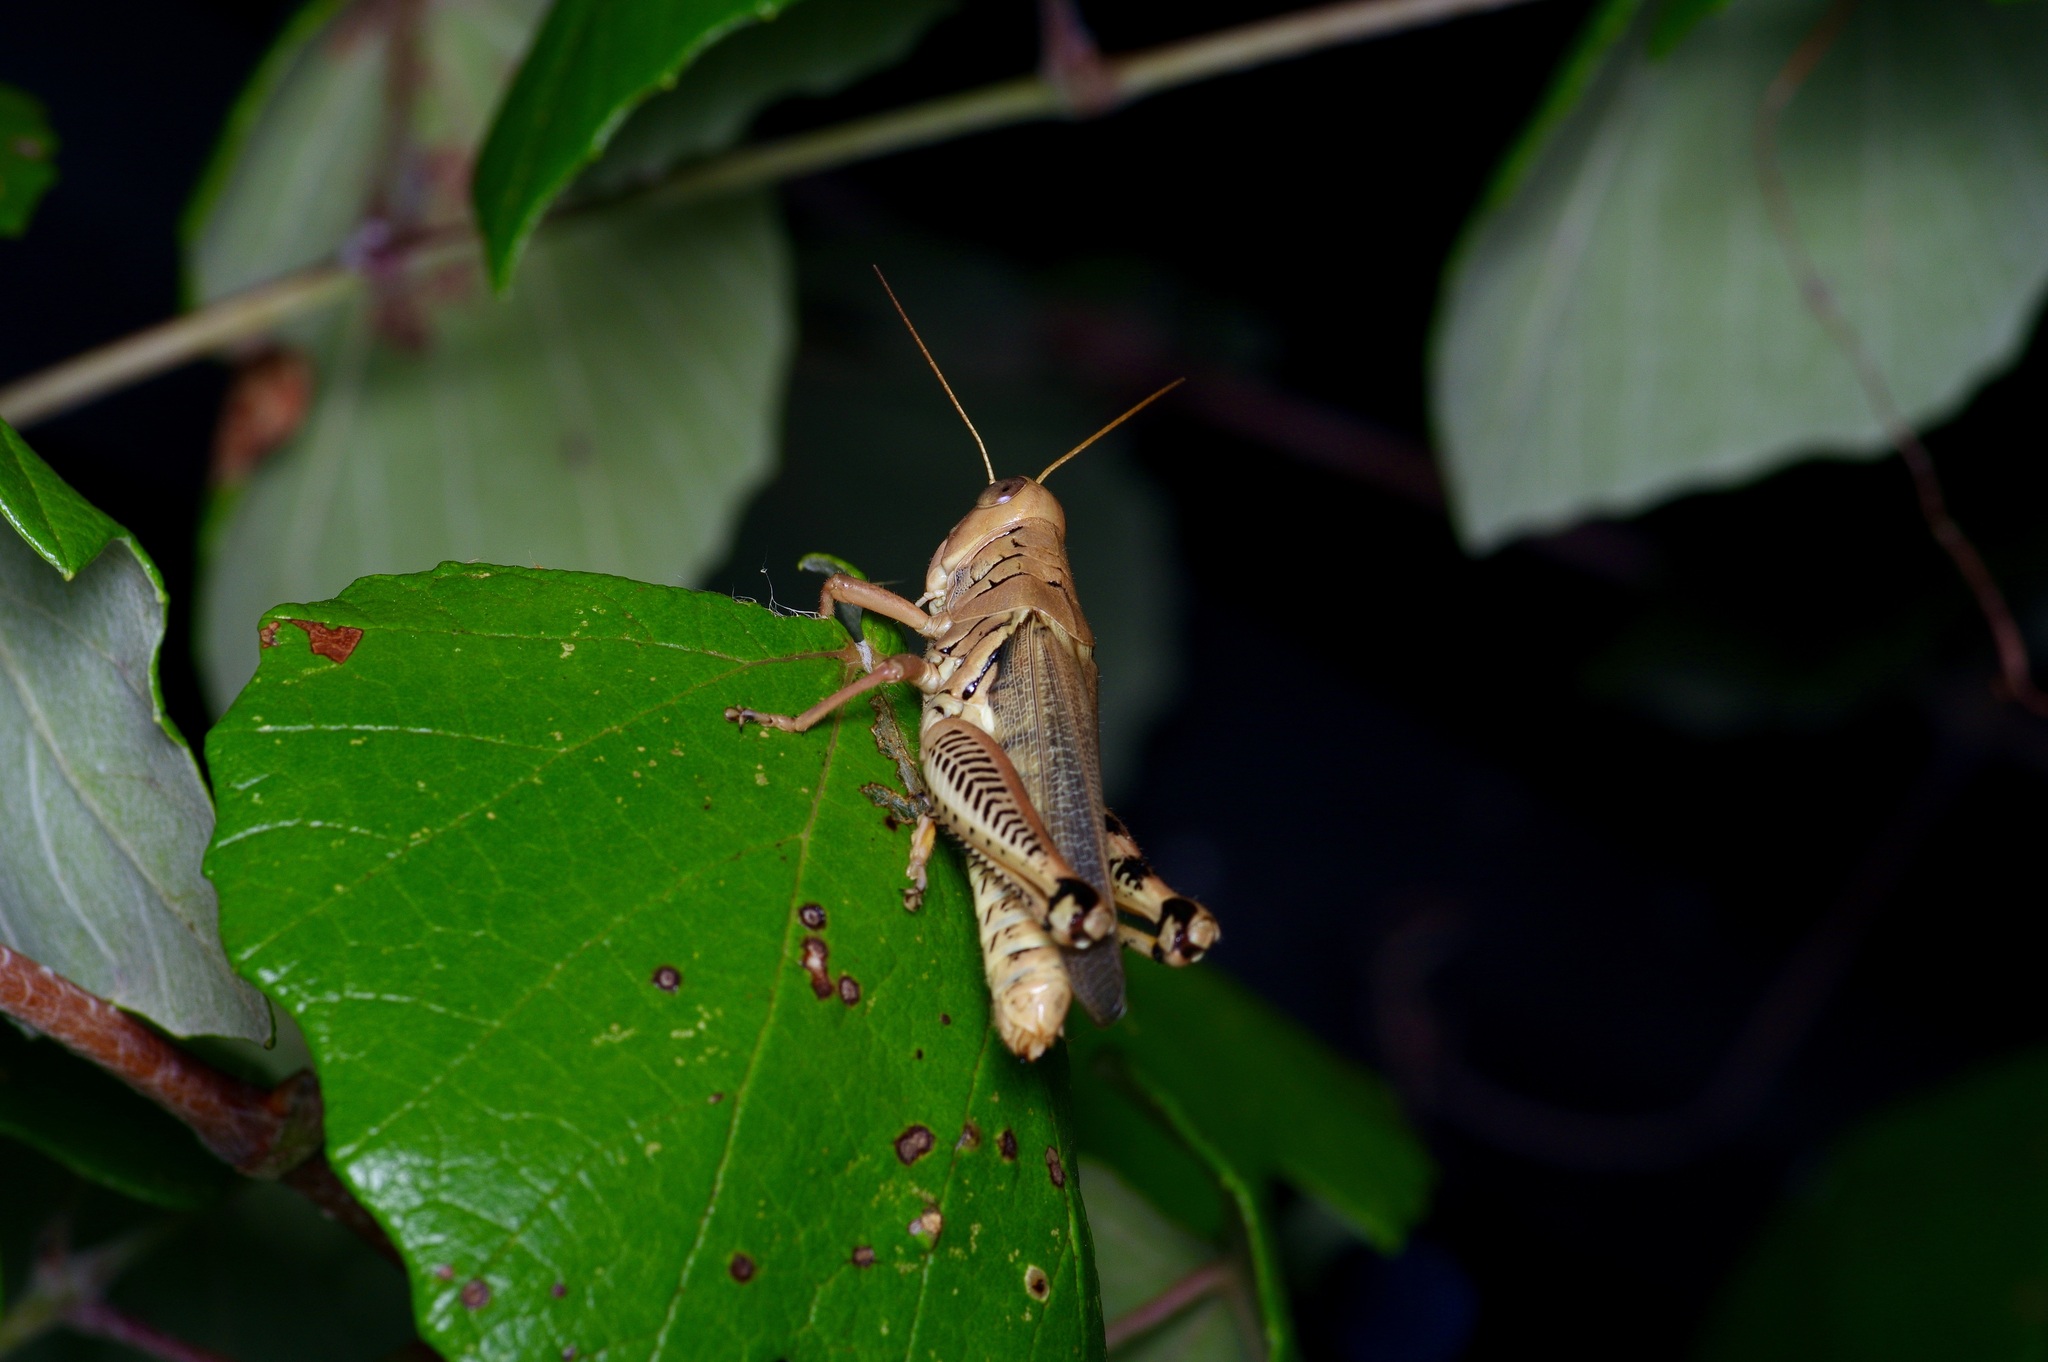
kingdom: Animalia
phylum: Arthropoda
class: Insecta
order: Orthoptera
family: Acrididae
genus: Melanoplus
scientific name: Melanoplus differentialis
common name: Differential grasshopper
